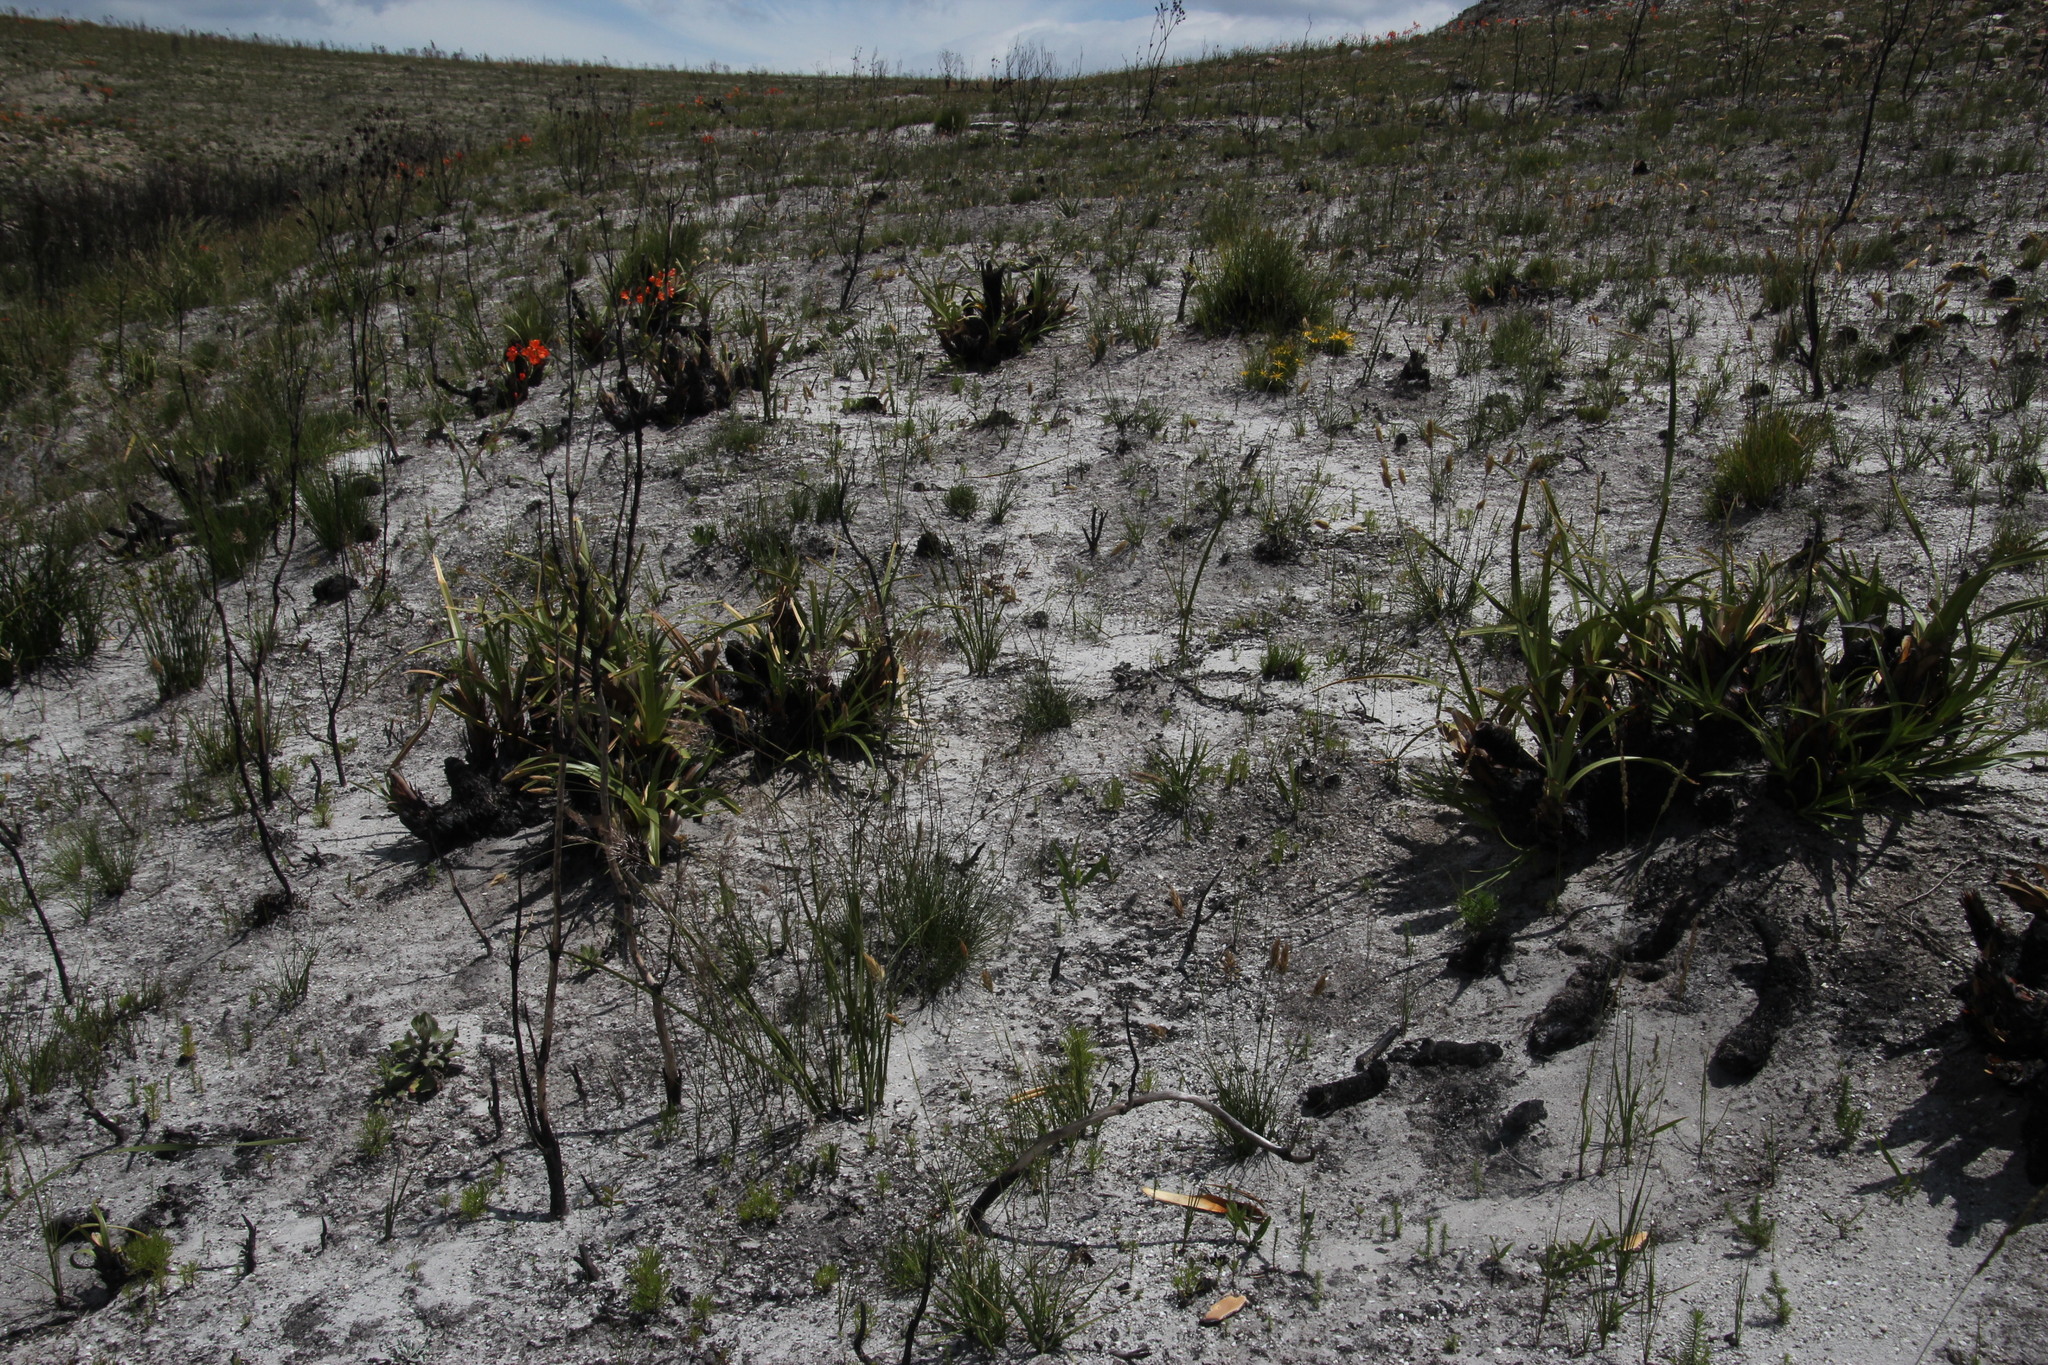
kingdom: Plantae
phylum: Tracheophyta
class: Liliopsida
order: Poales
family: Cyperaceae
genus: Tetraria
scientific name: Tetraria thermalis
